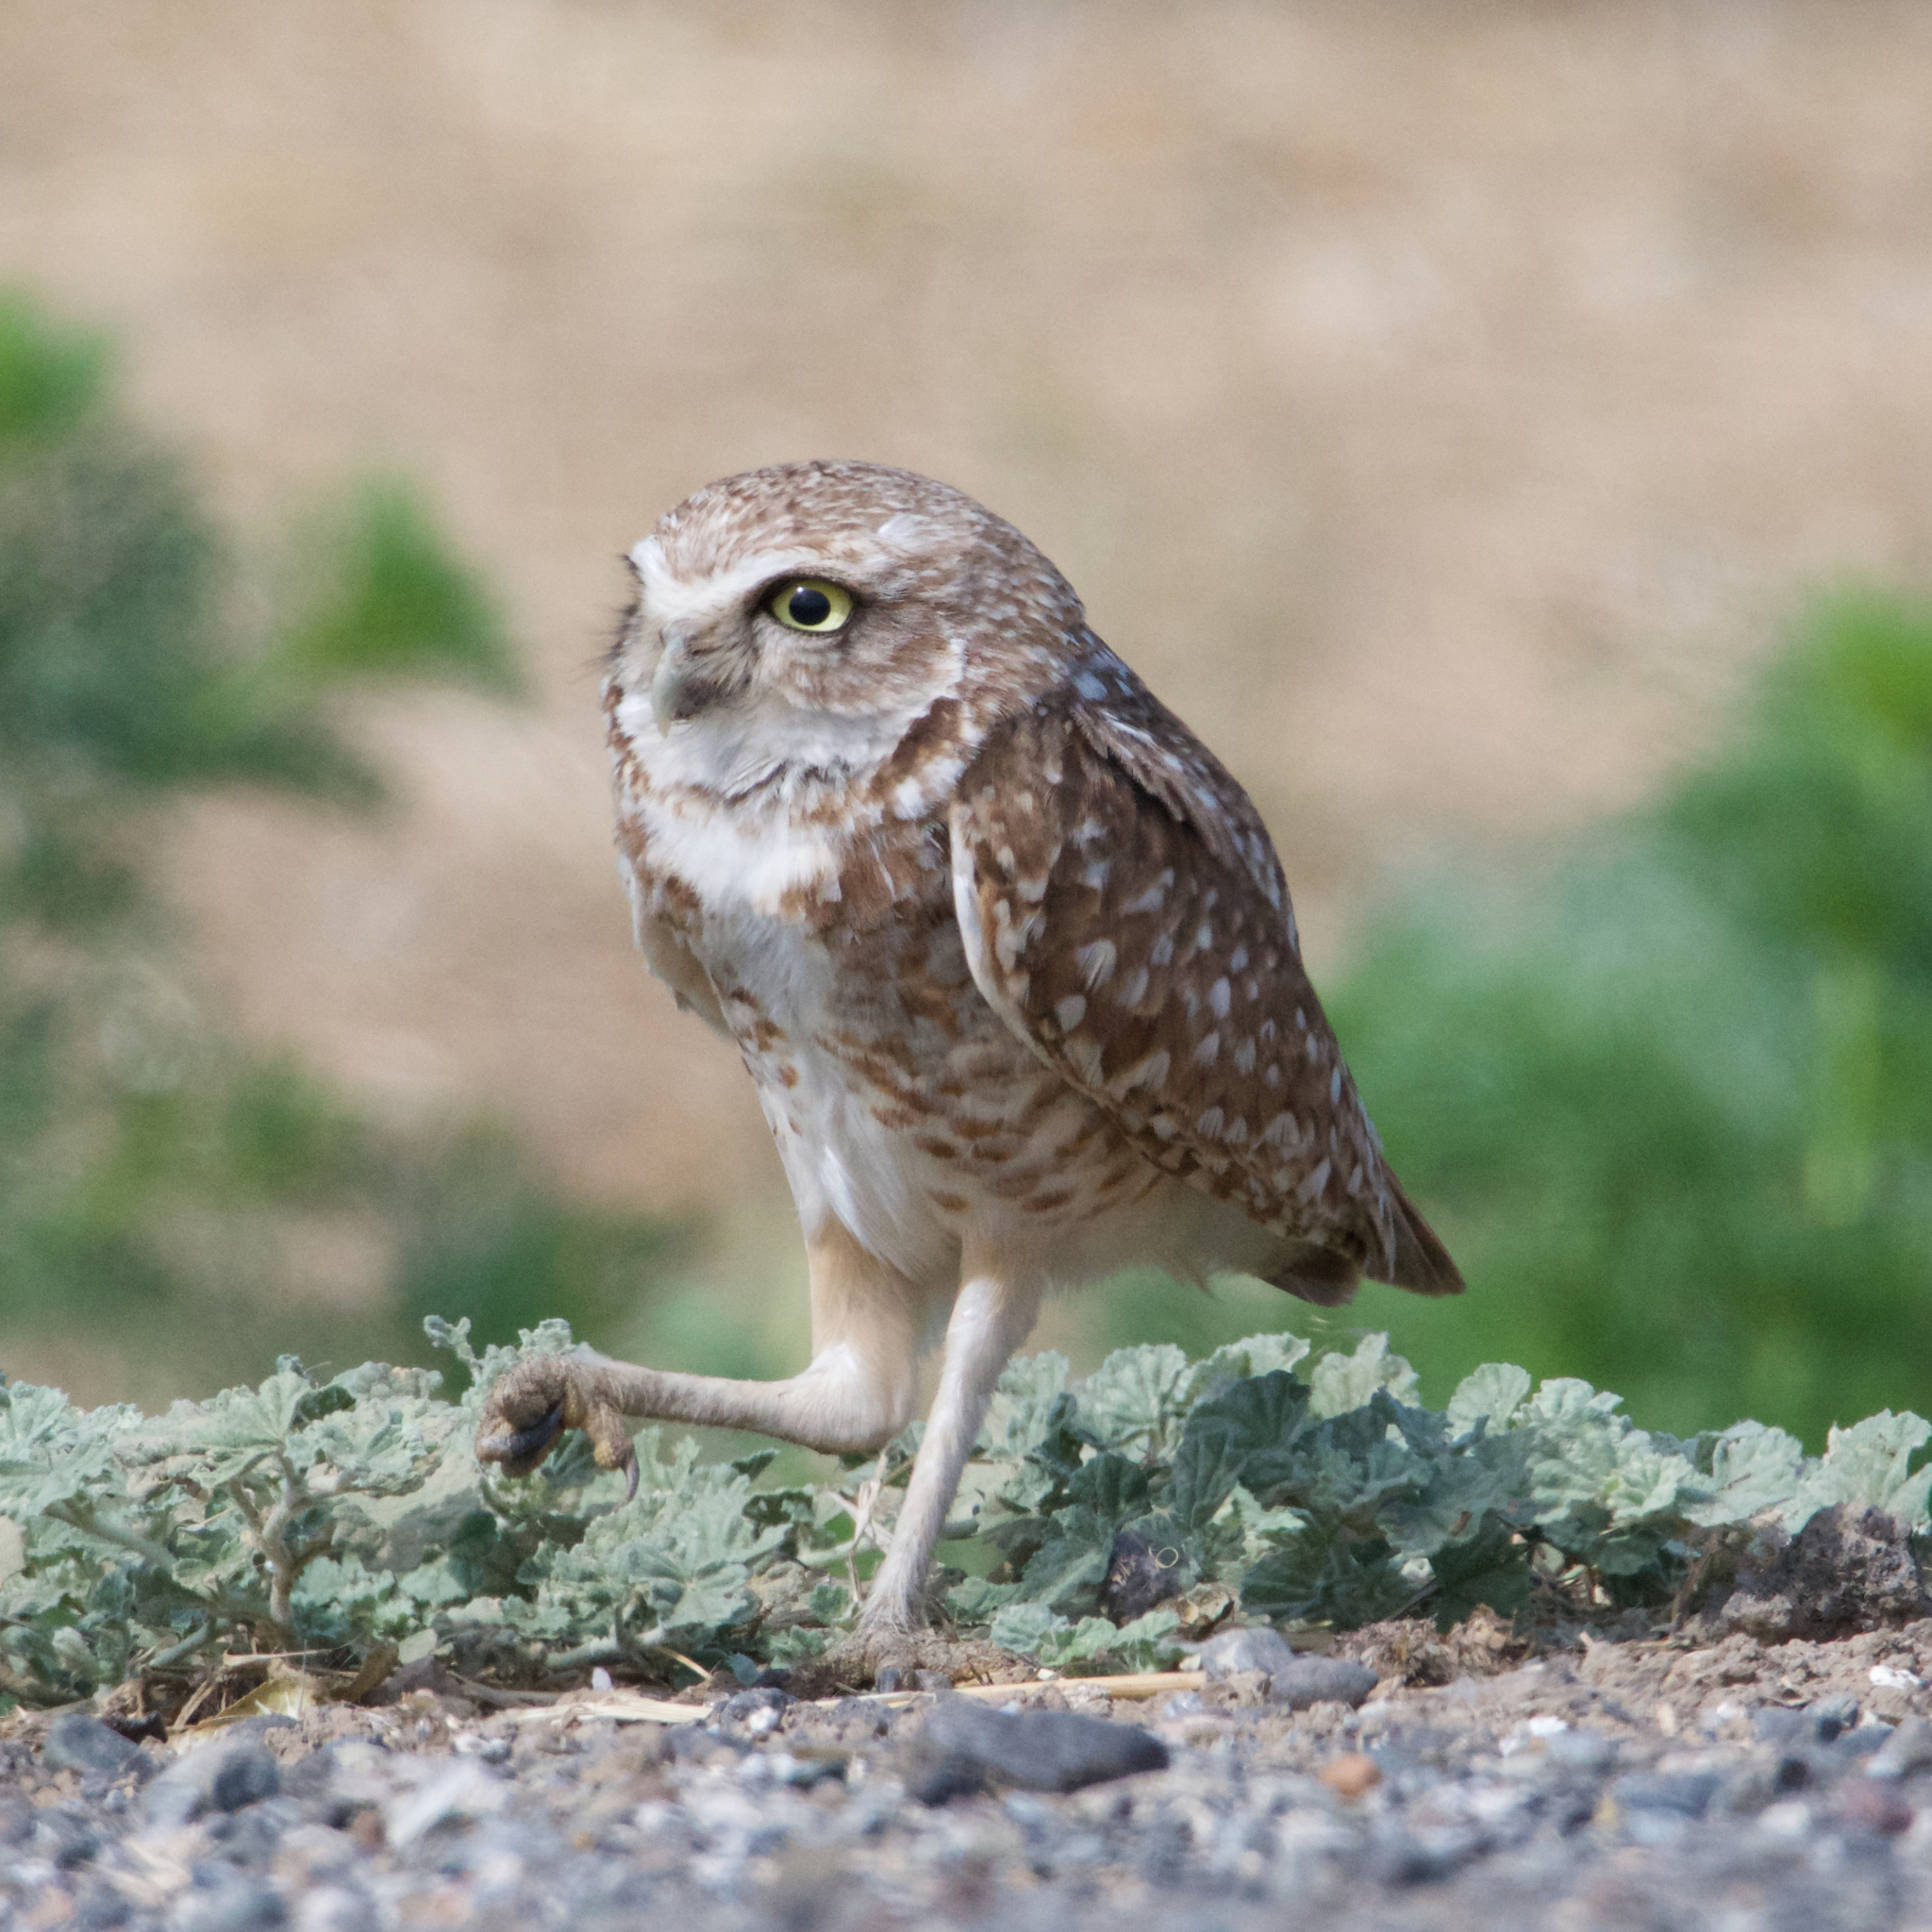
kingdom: Animalia
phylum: Chordata
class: Aves
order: Strigiformes
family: Strigidae
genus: Athene
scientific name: Athene cunicularia
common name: Burrowing owl
